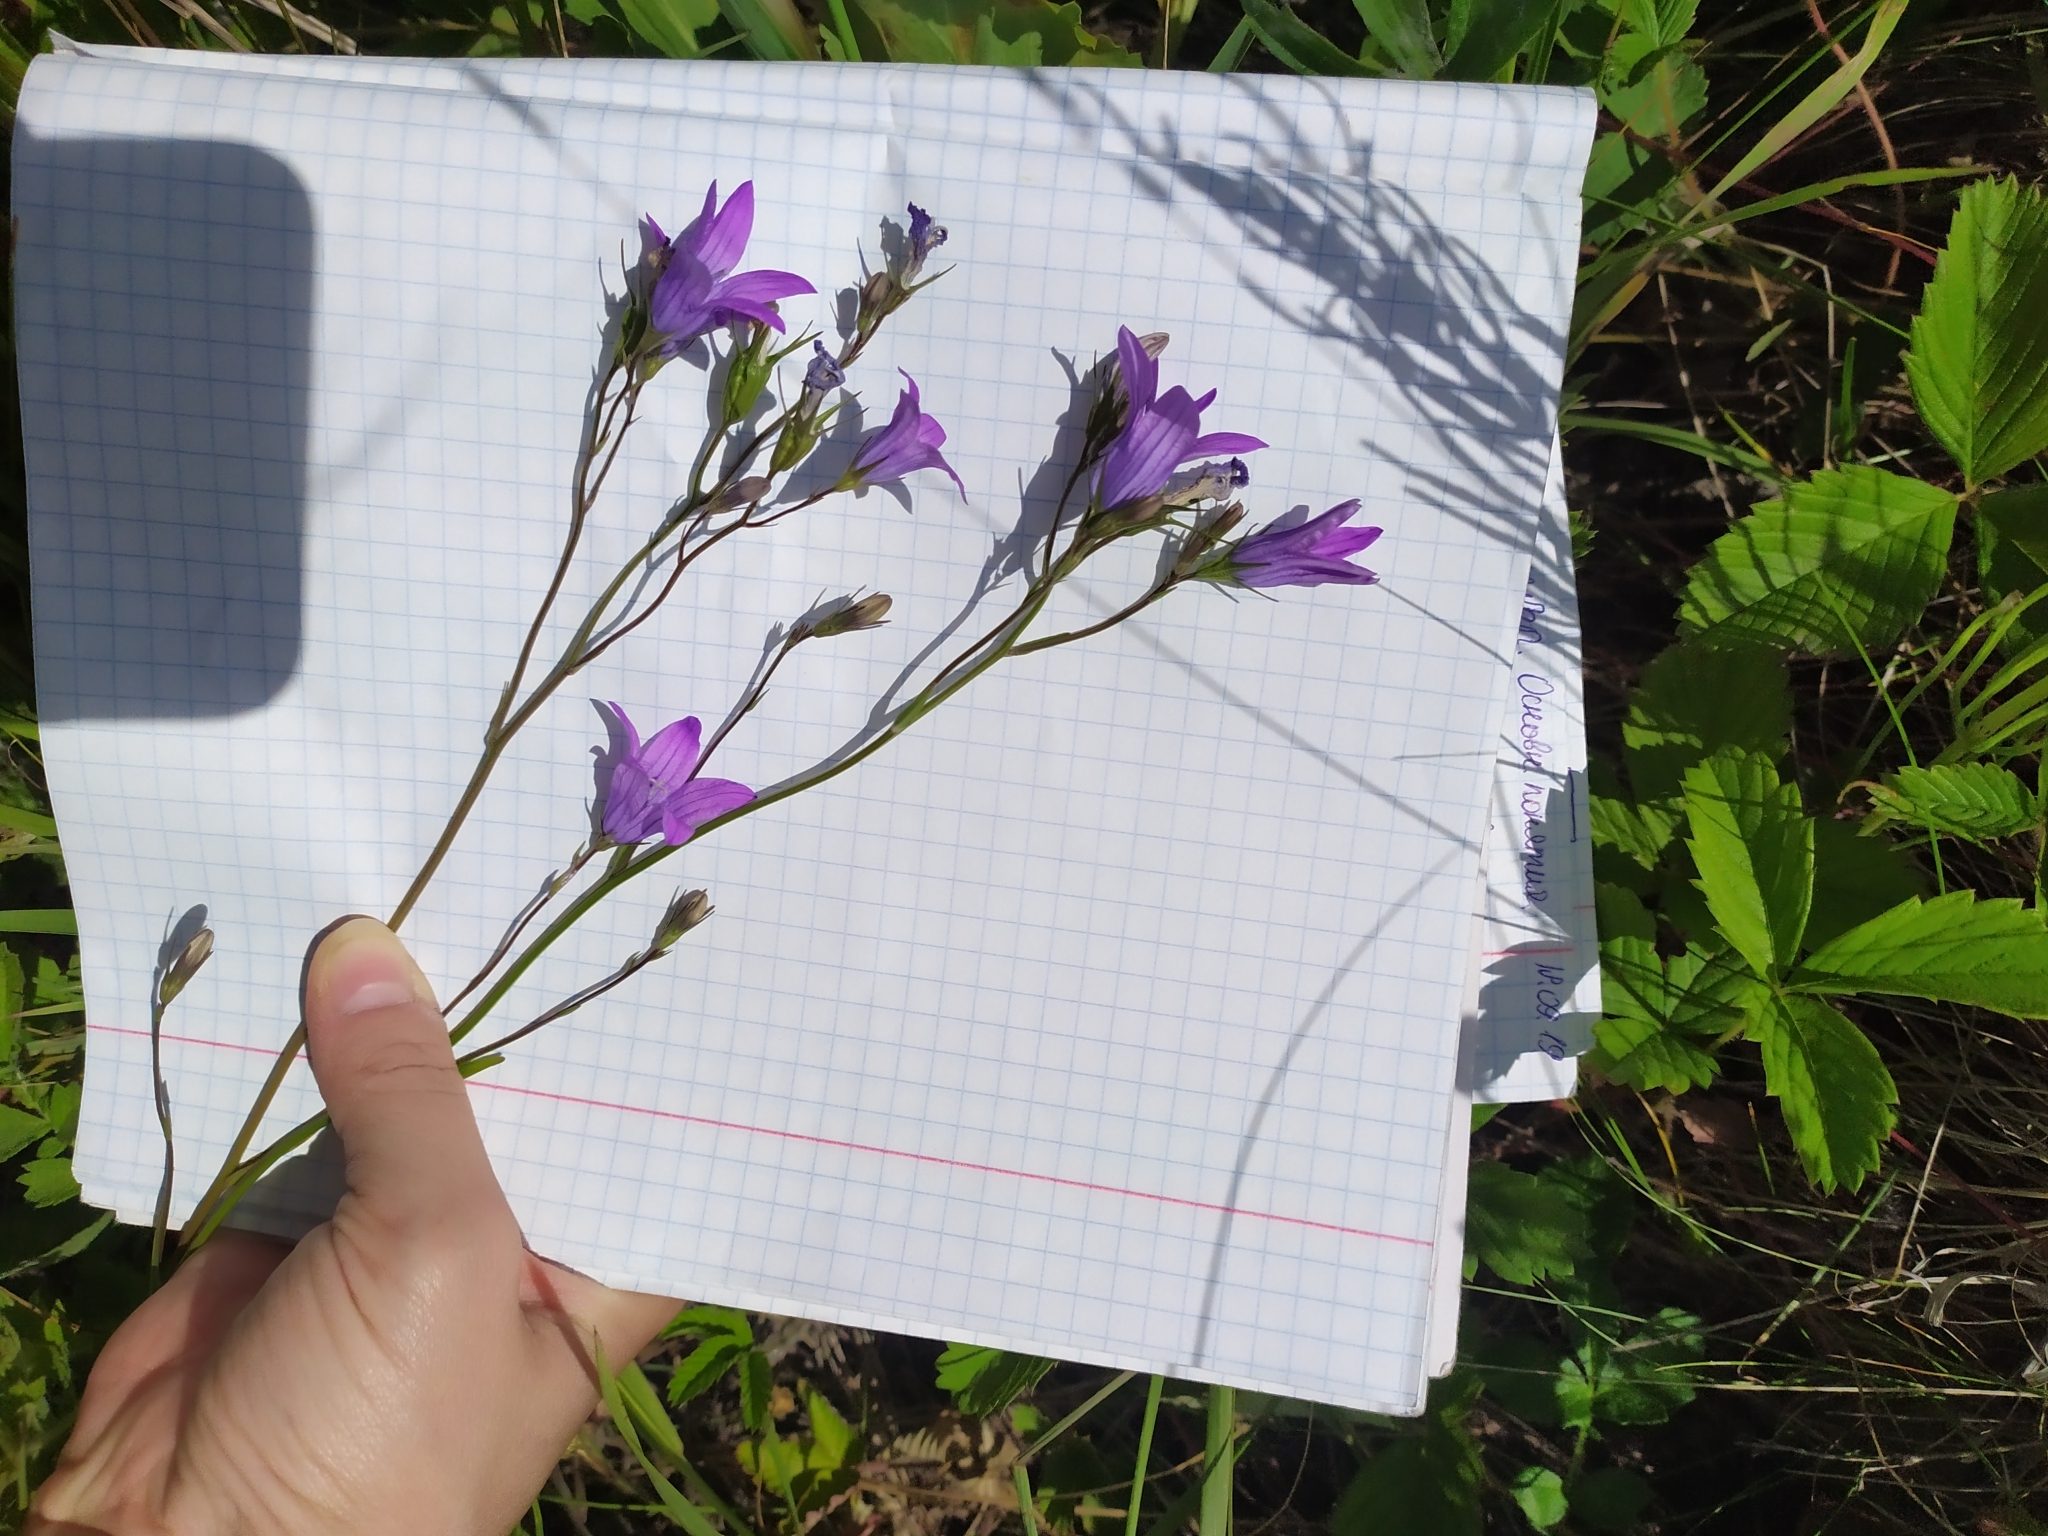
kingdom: Plantae
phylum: Tracheophyta
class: Magnoliopsida
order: Asterales
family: Campanulaceae
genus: Campanula
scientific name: Campanula patula
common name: Spreading bellflower
